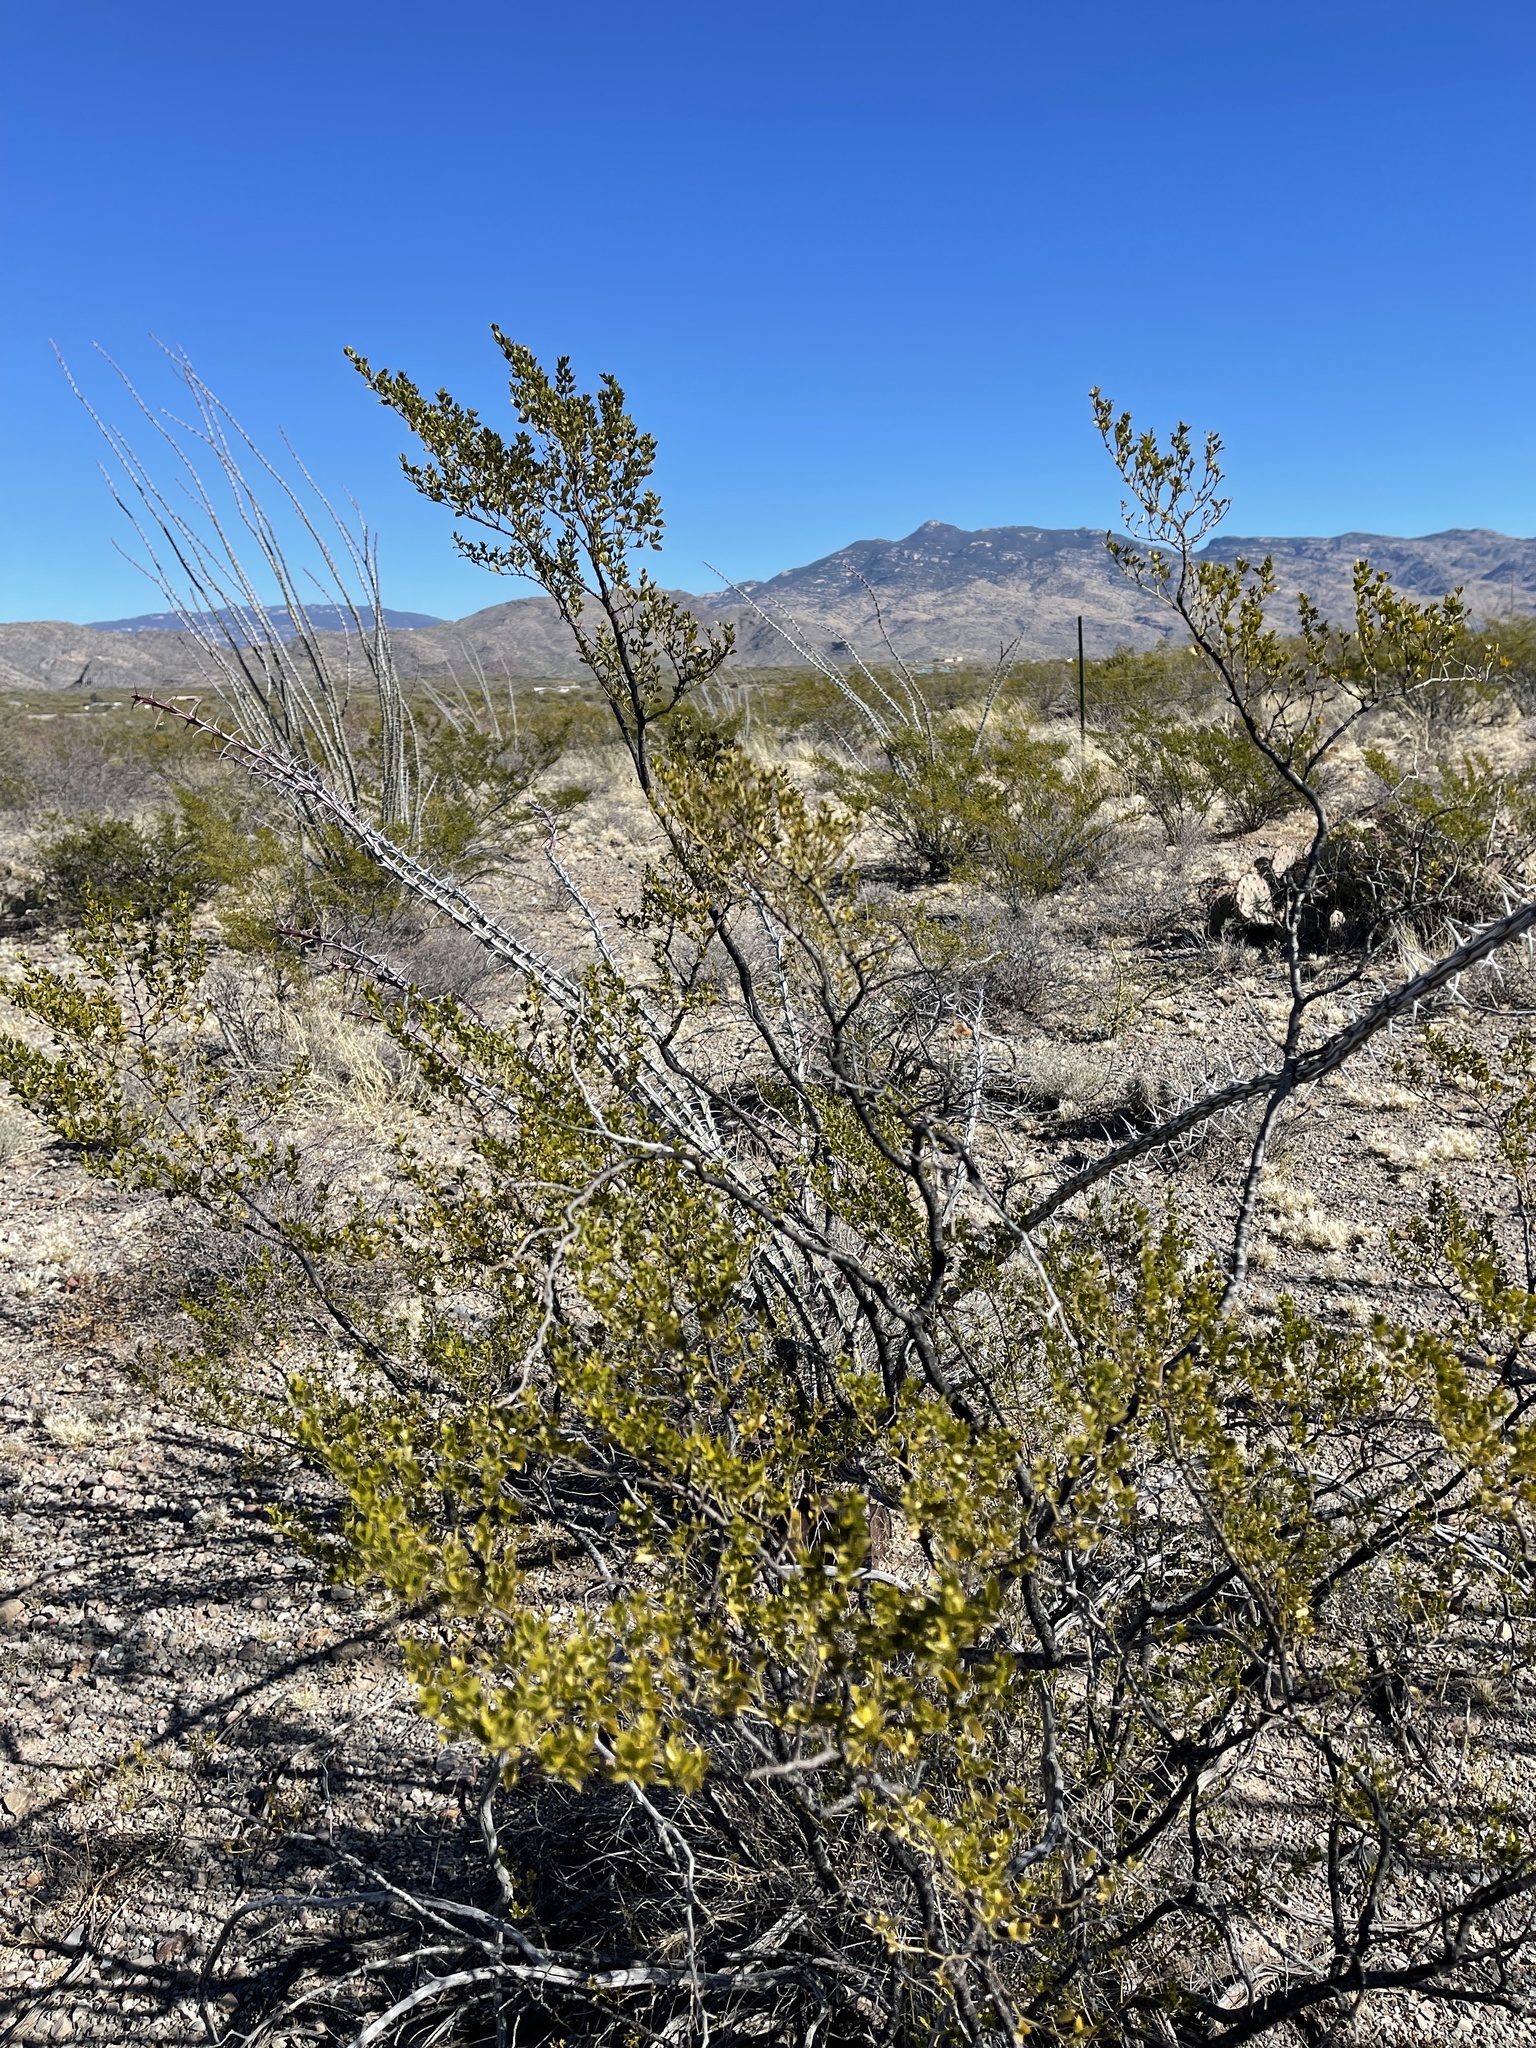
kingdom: Plantae
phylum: Tracheophyta
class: Magnoliopsida
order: Zygophyllales
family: Zygophyllaceae
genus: Larrea
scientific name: Larrea tridentata
